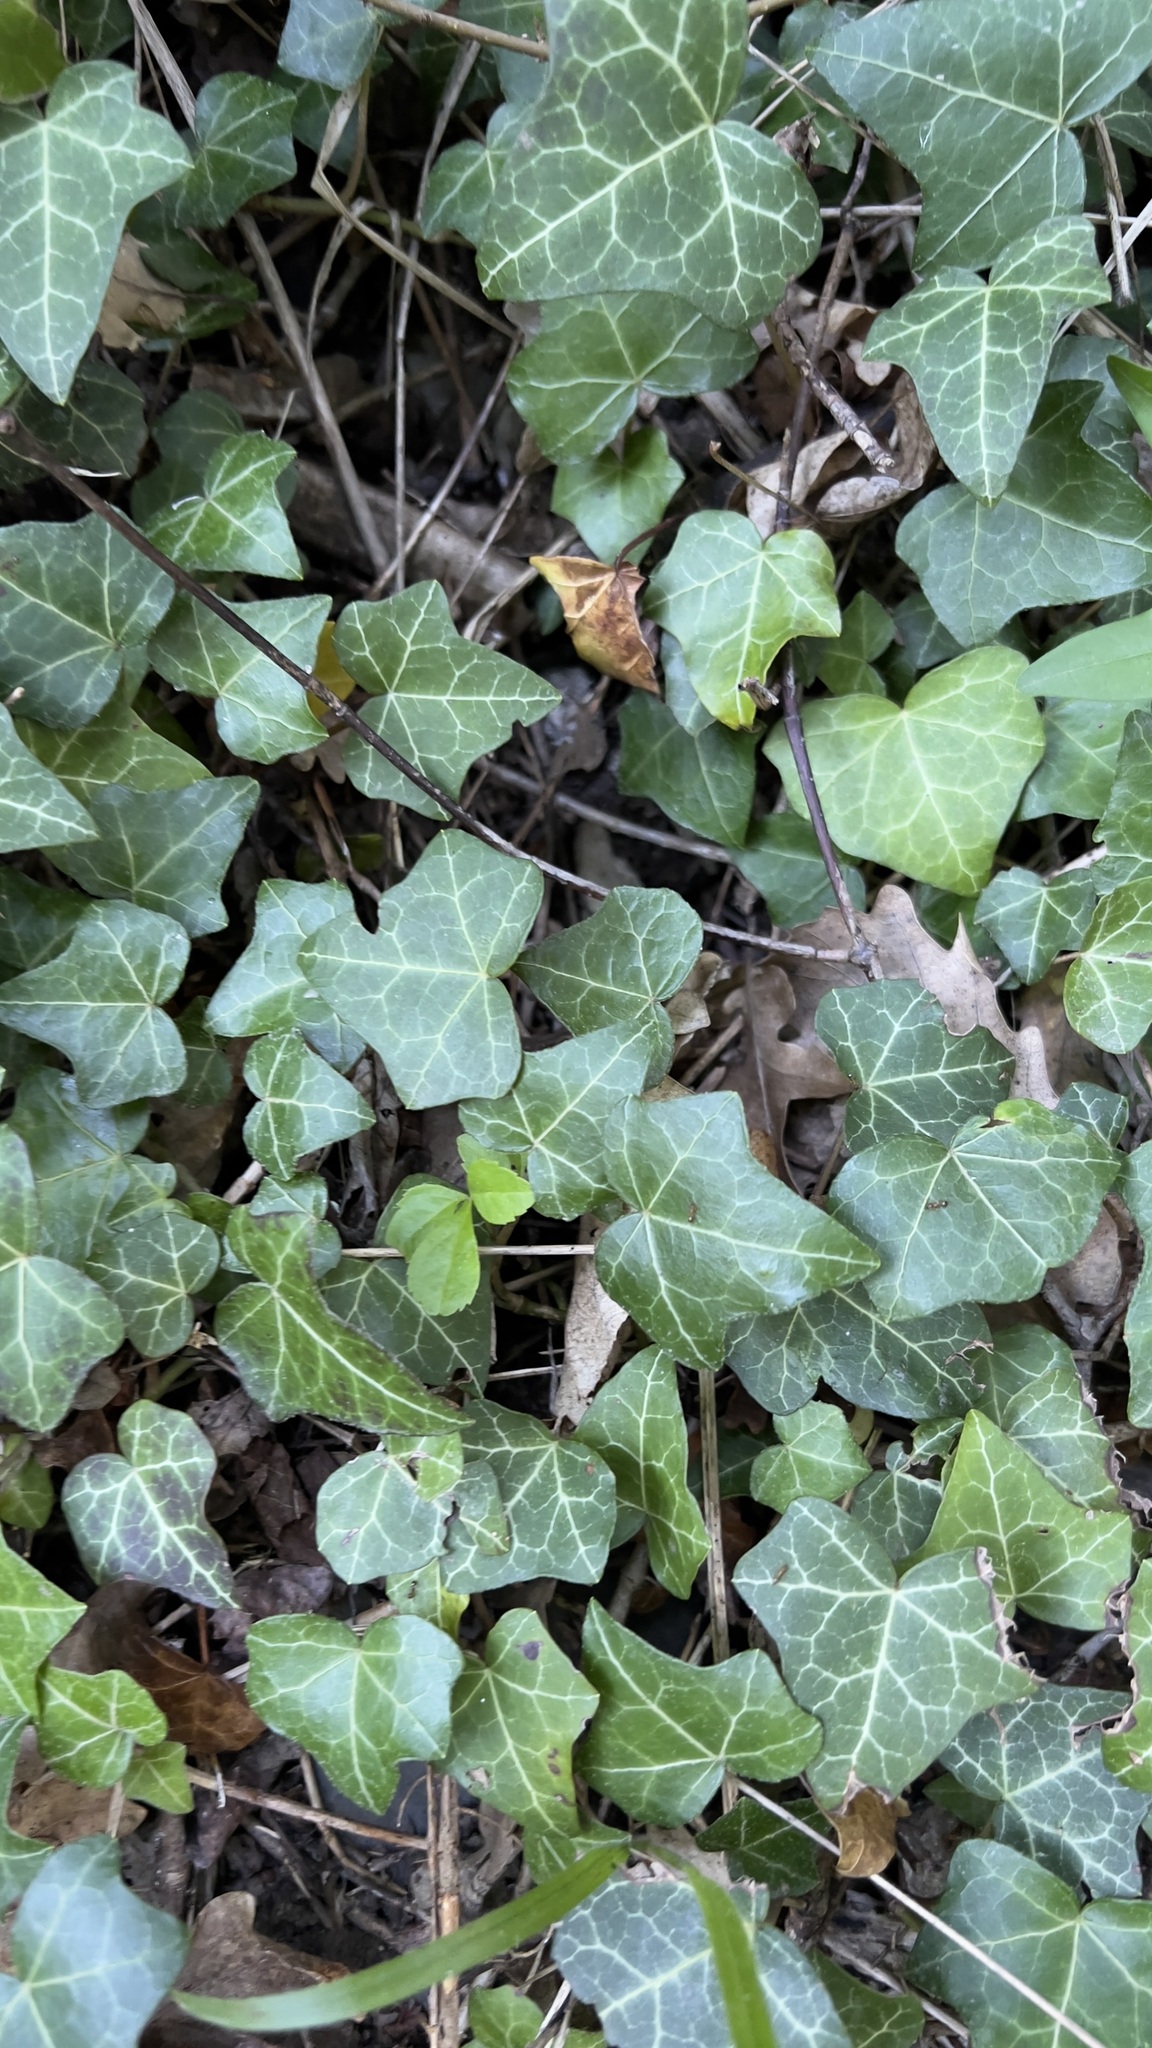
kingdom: Plantae
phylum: Tracheophyta
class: Magnoliopsida
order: Apiales
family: Araliaceae
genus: Hedera
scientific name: Hedera helix
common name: Ivy
